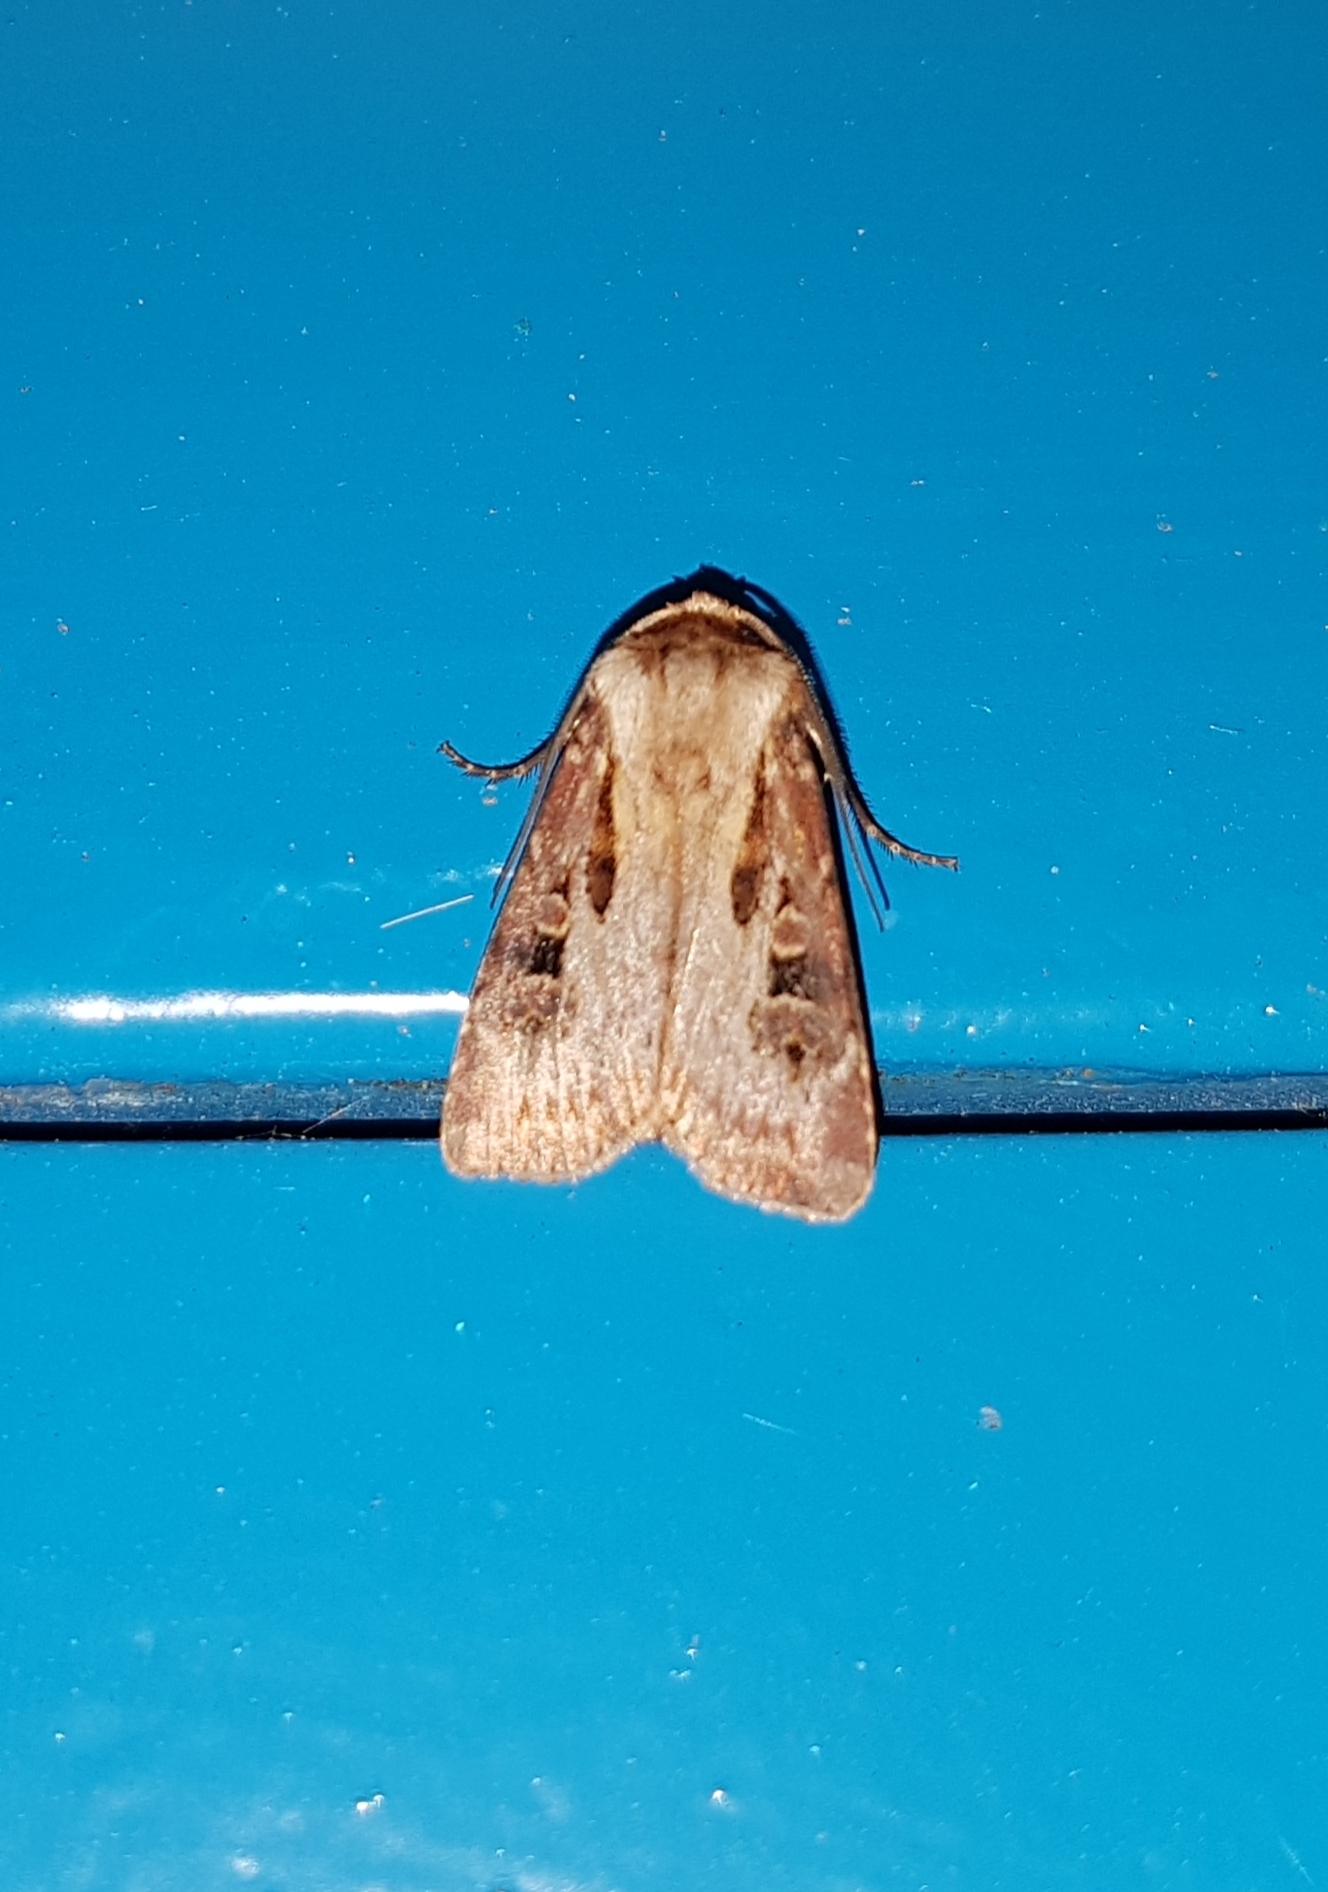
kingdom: Animalia
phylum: Arthropoda
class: Insecta
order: Lepidoptera
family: Noctuidae
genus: Agrotis
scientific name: Agrotis vancouverensis
